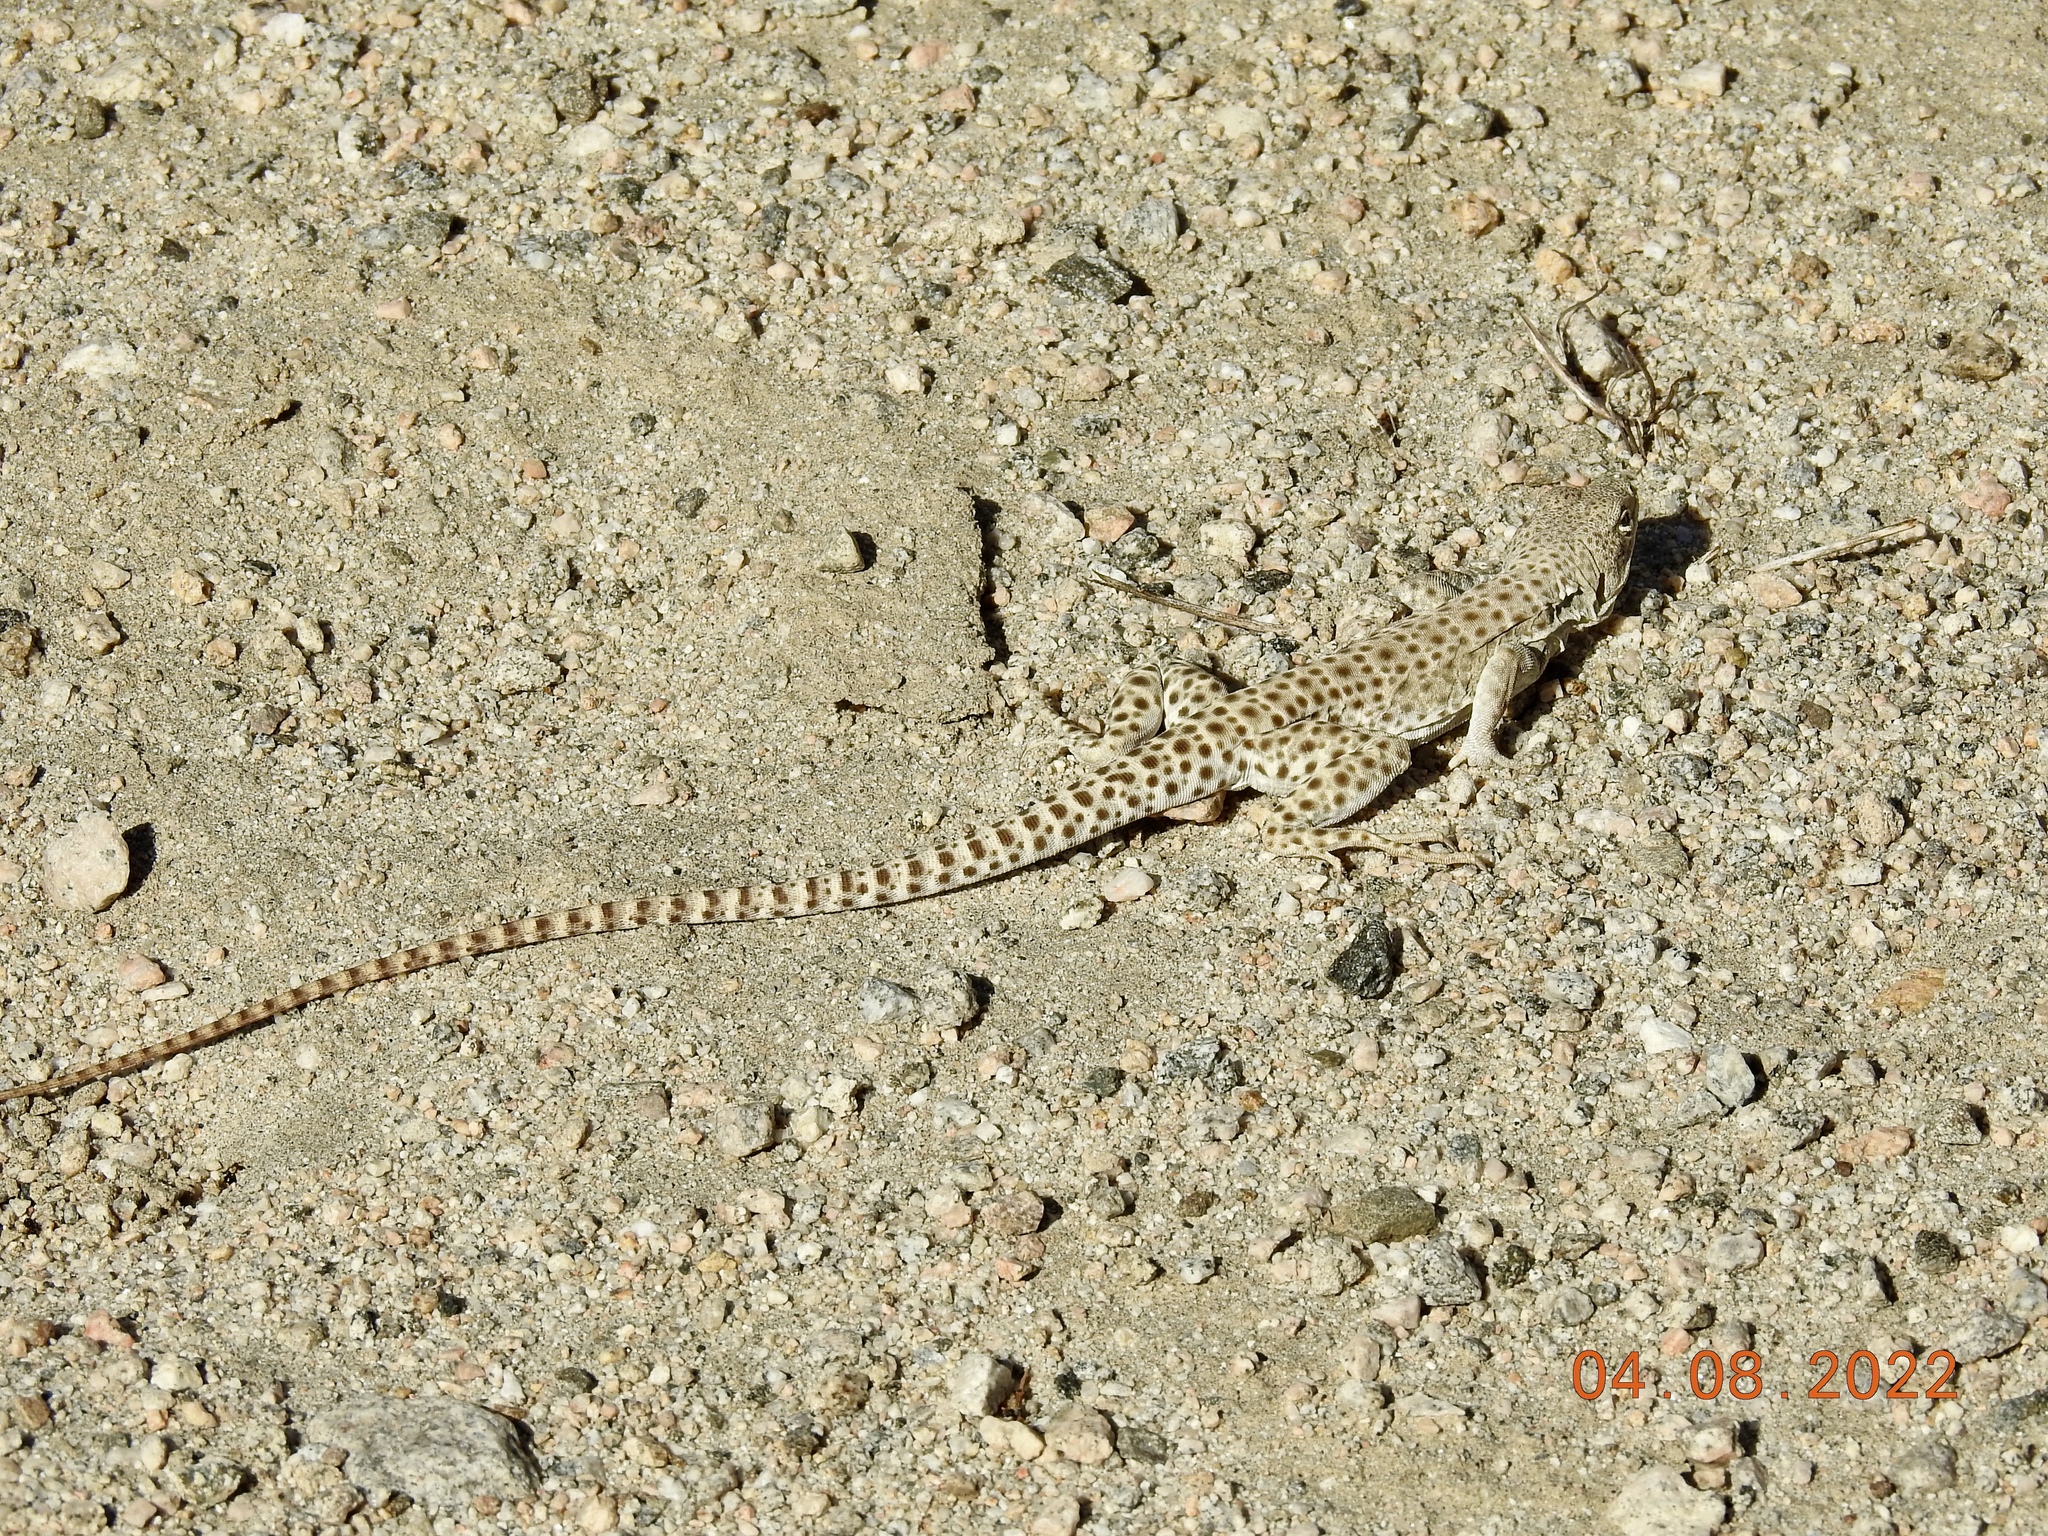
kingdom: Animalia
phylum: Chordata
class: Squamata
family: Crotaphytidae
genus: Gambelia
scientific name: Gambelia wislizenii
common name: Longnose leopard lizard
